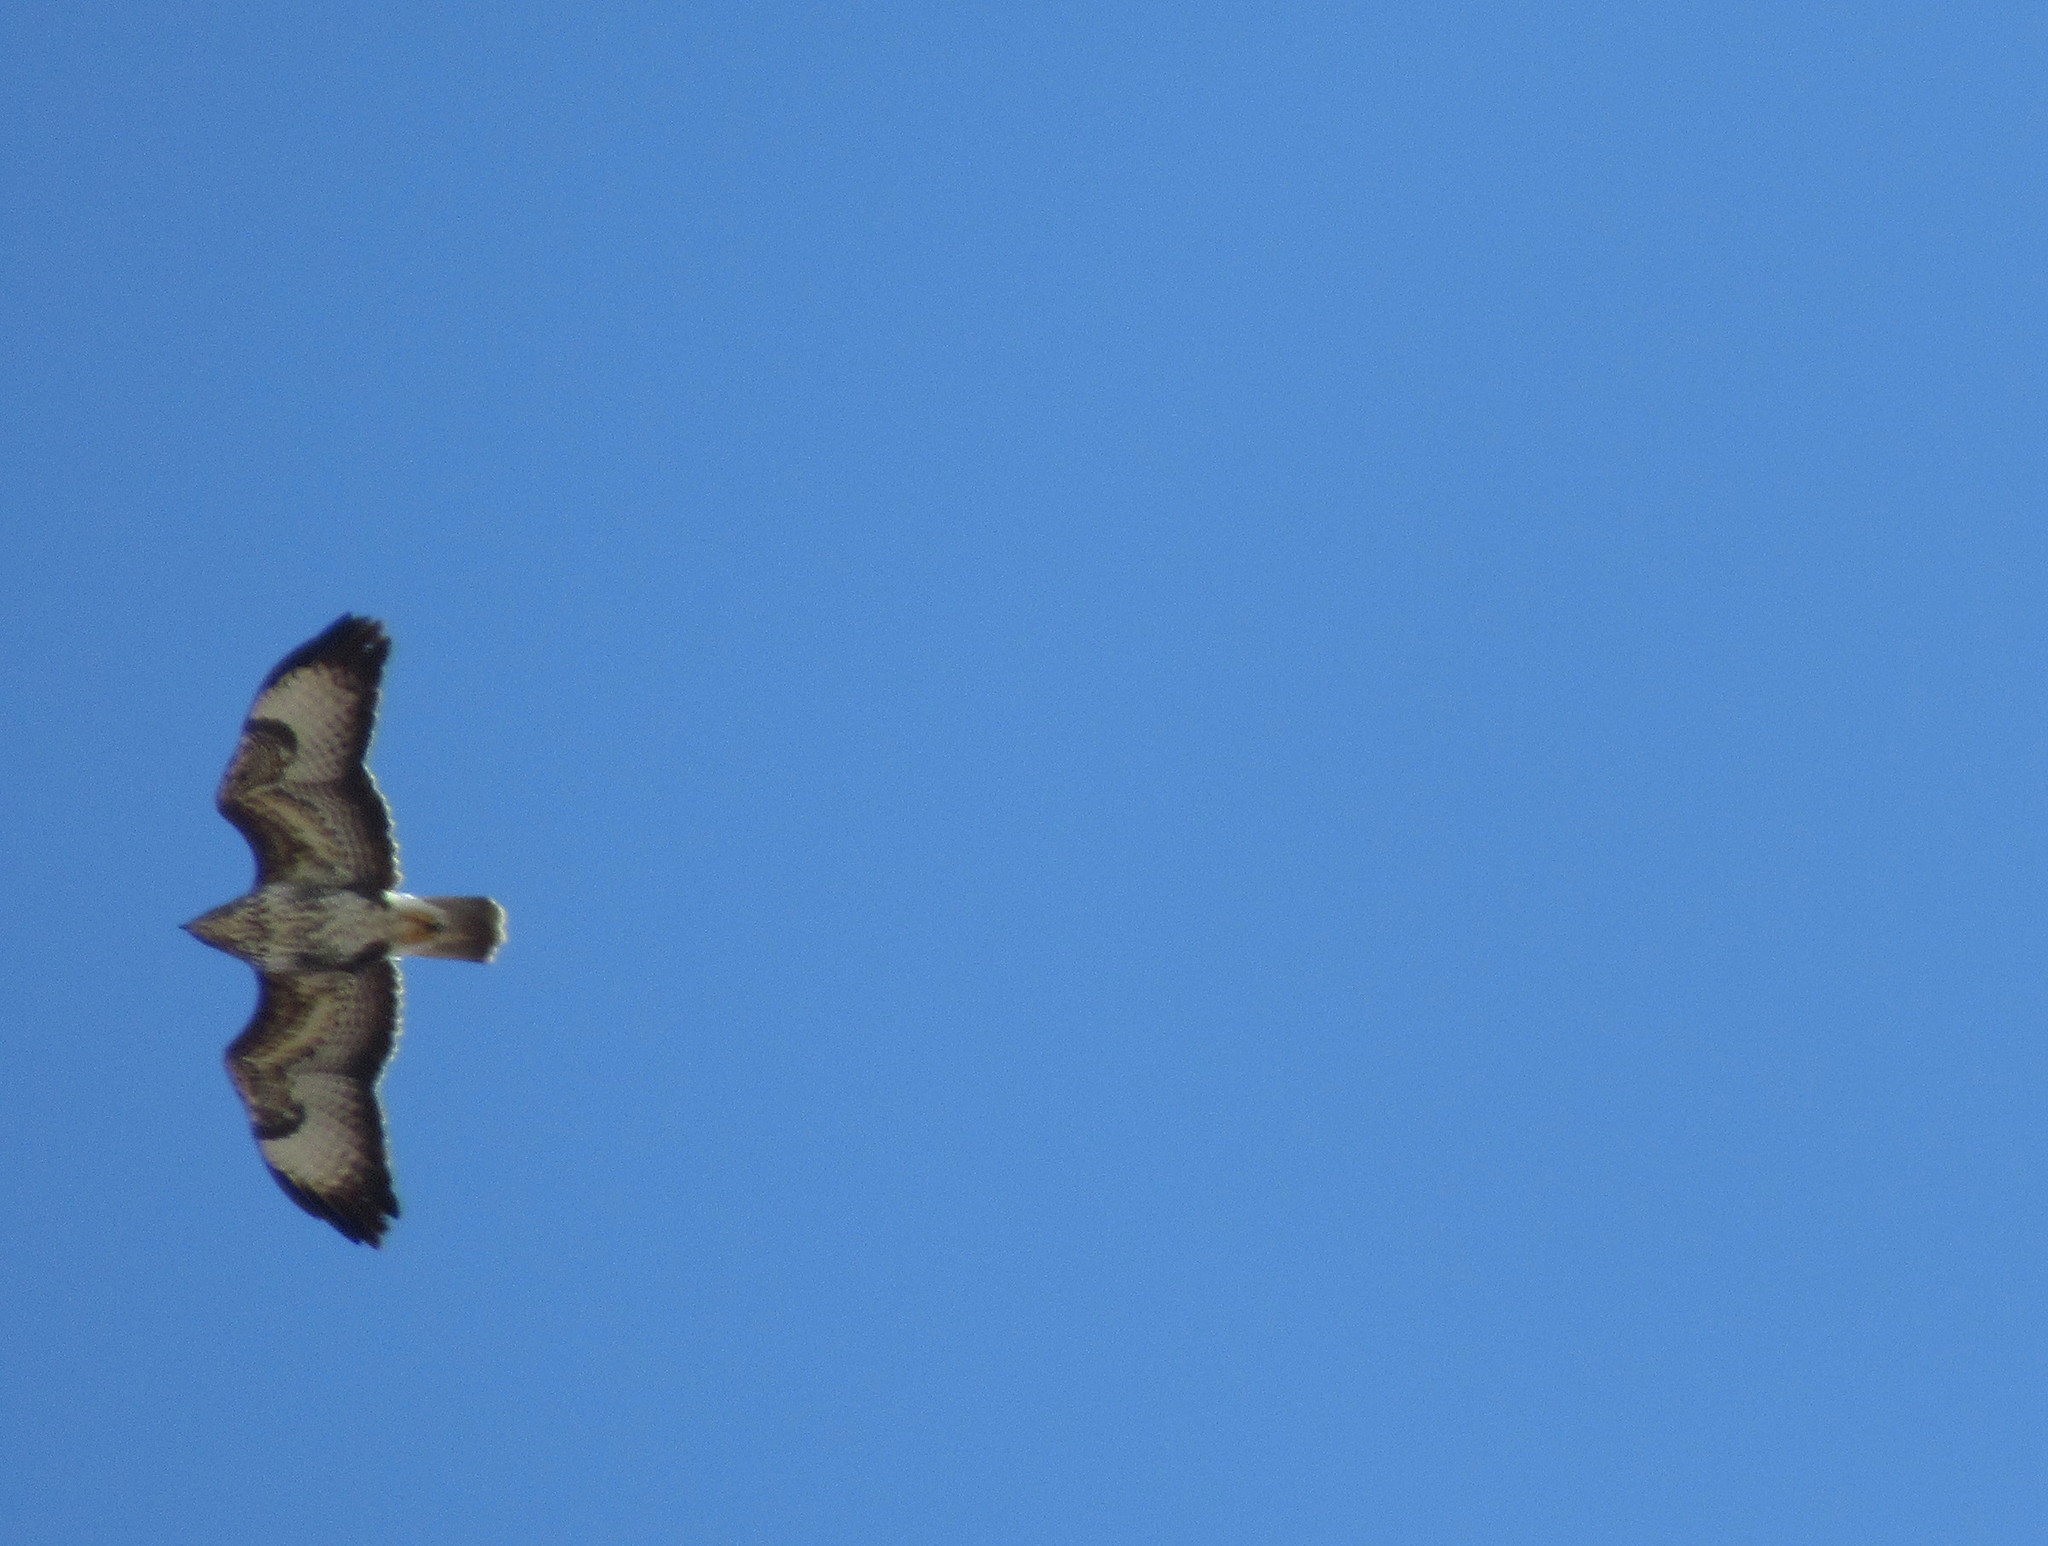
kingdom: Animalia
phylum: Chordata
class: Aves
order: Accipitriformes
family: Accipitridae
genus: Buteo
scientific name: Buteo buteo
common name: Common buzzard
